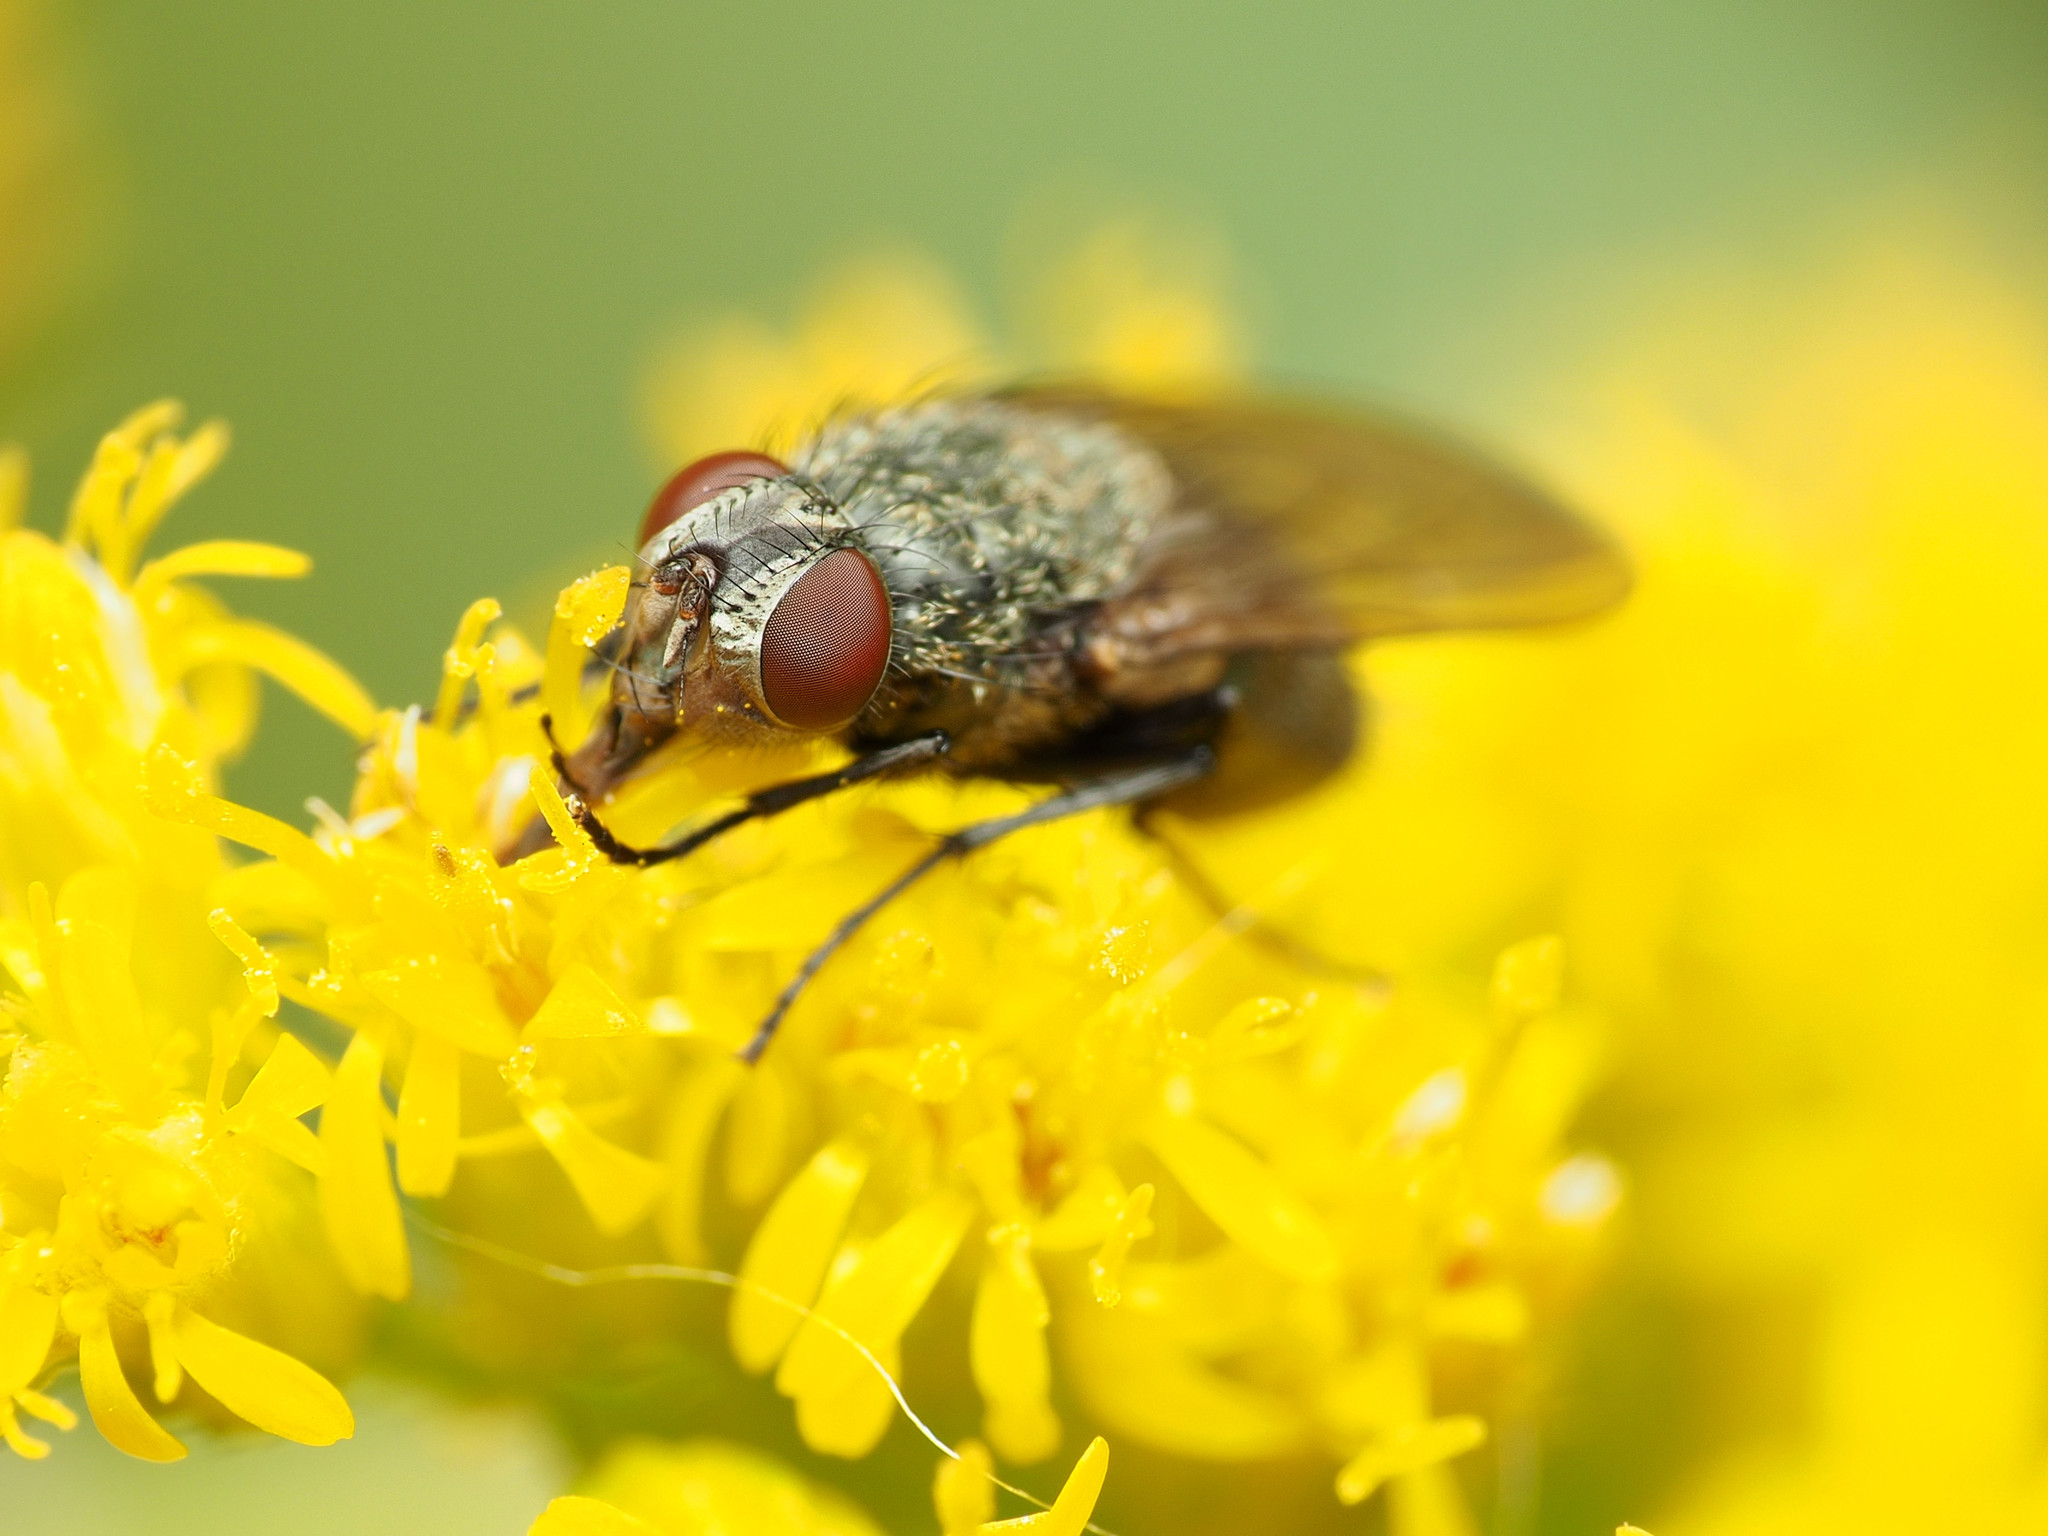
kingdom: Animalia
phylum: Arthropoda
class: Insecta
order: Diptera
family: Polleniidae
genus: Pollenia
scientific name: Pollenia
